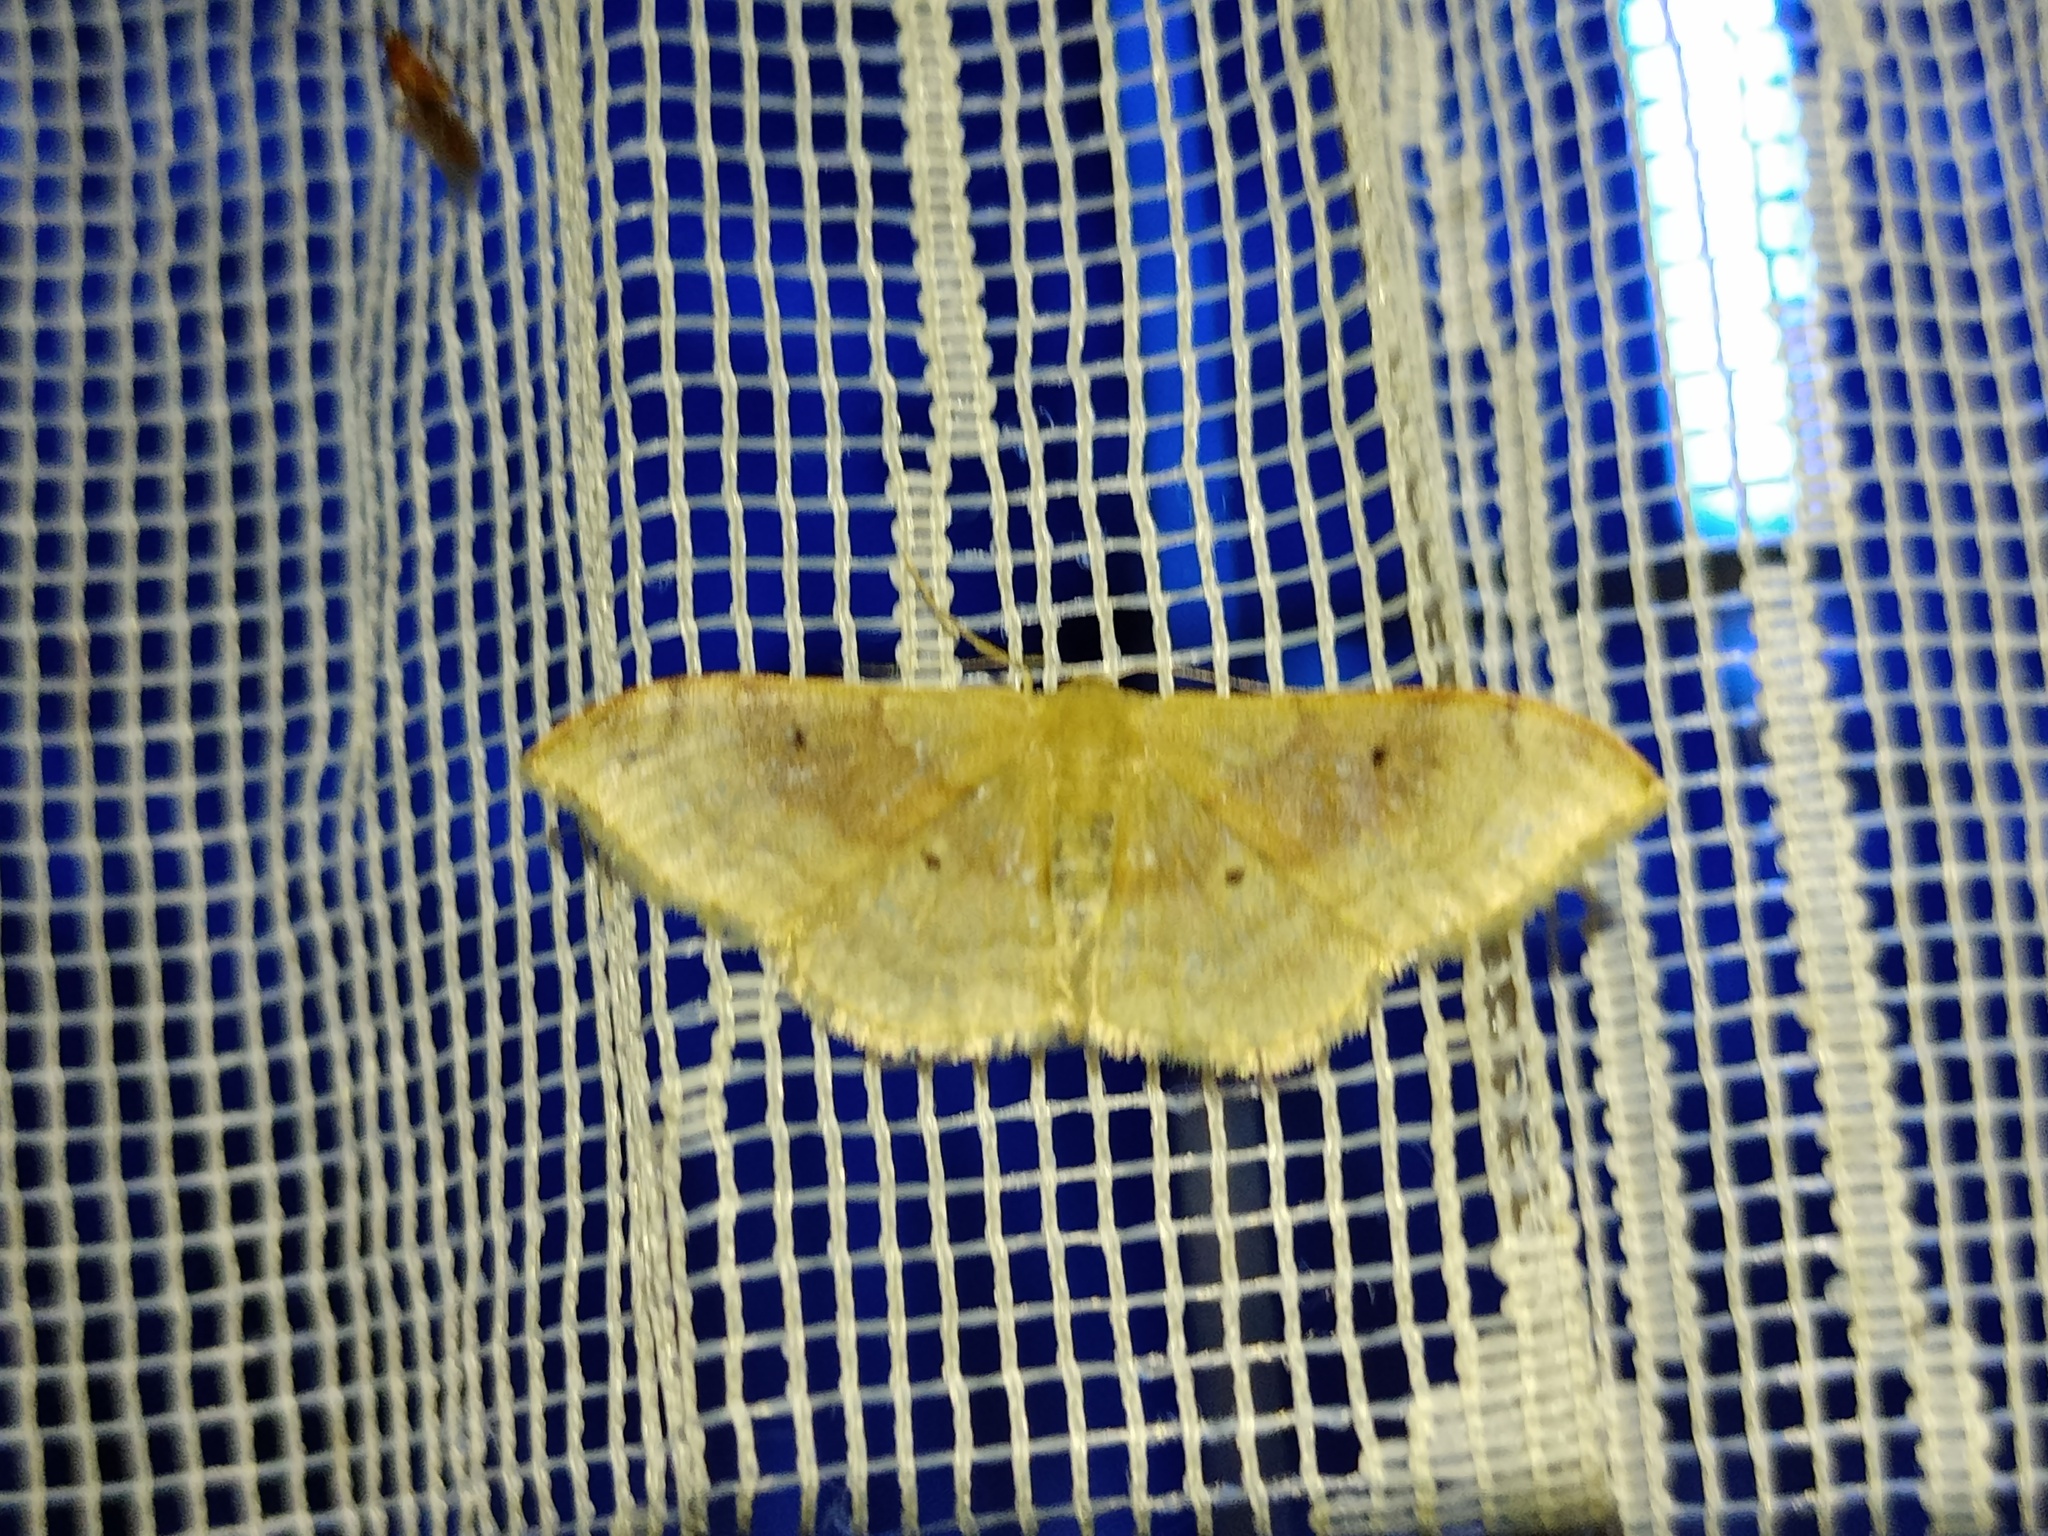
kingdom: Animalia
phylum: Arthropoda
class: Insecta
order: Lepidoptera
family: Geometridae
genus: Idaea
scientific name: Idaea degeneraria
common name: Portland ribbon wave
